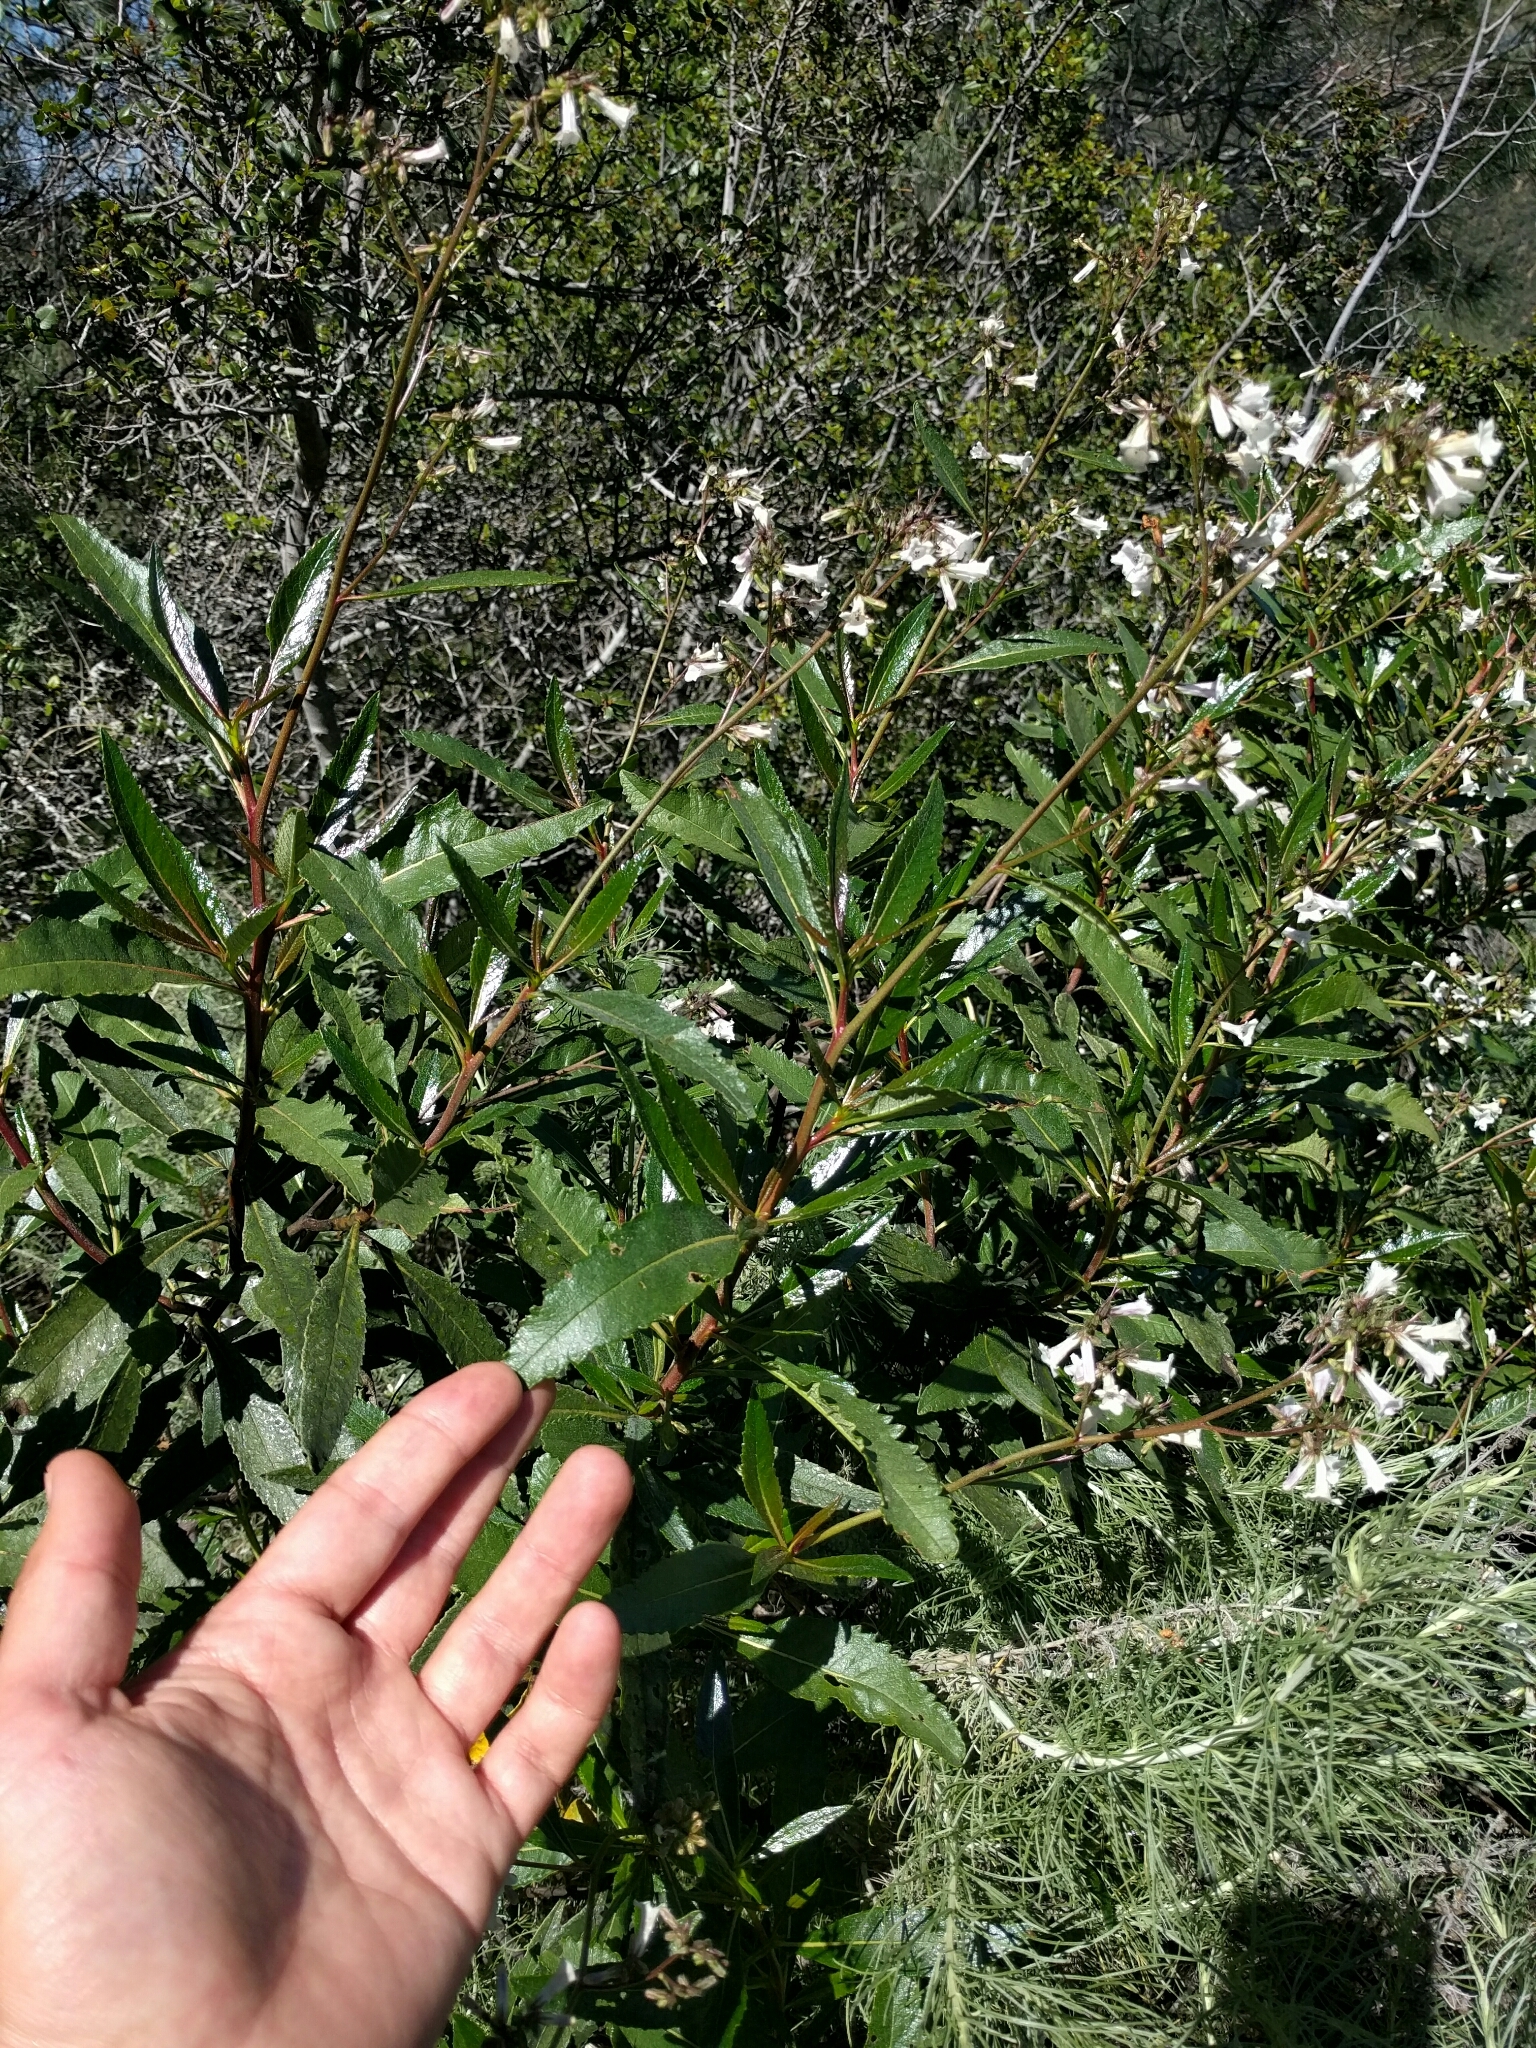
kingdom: Plantae
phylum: Tracheophyta
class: Magnoliopsida
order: Boraginales
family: Namaceae
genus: Eriodictyon
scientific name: Eriodictyon californicum
